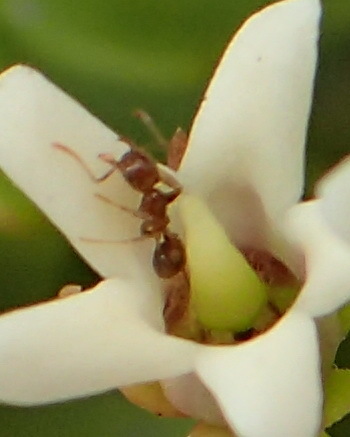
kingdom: Animalia
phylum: Arthropoda
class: Insecta
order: Hymenoptera
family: Formicidae
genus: Monomorium
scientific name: Monomorium australe
